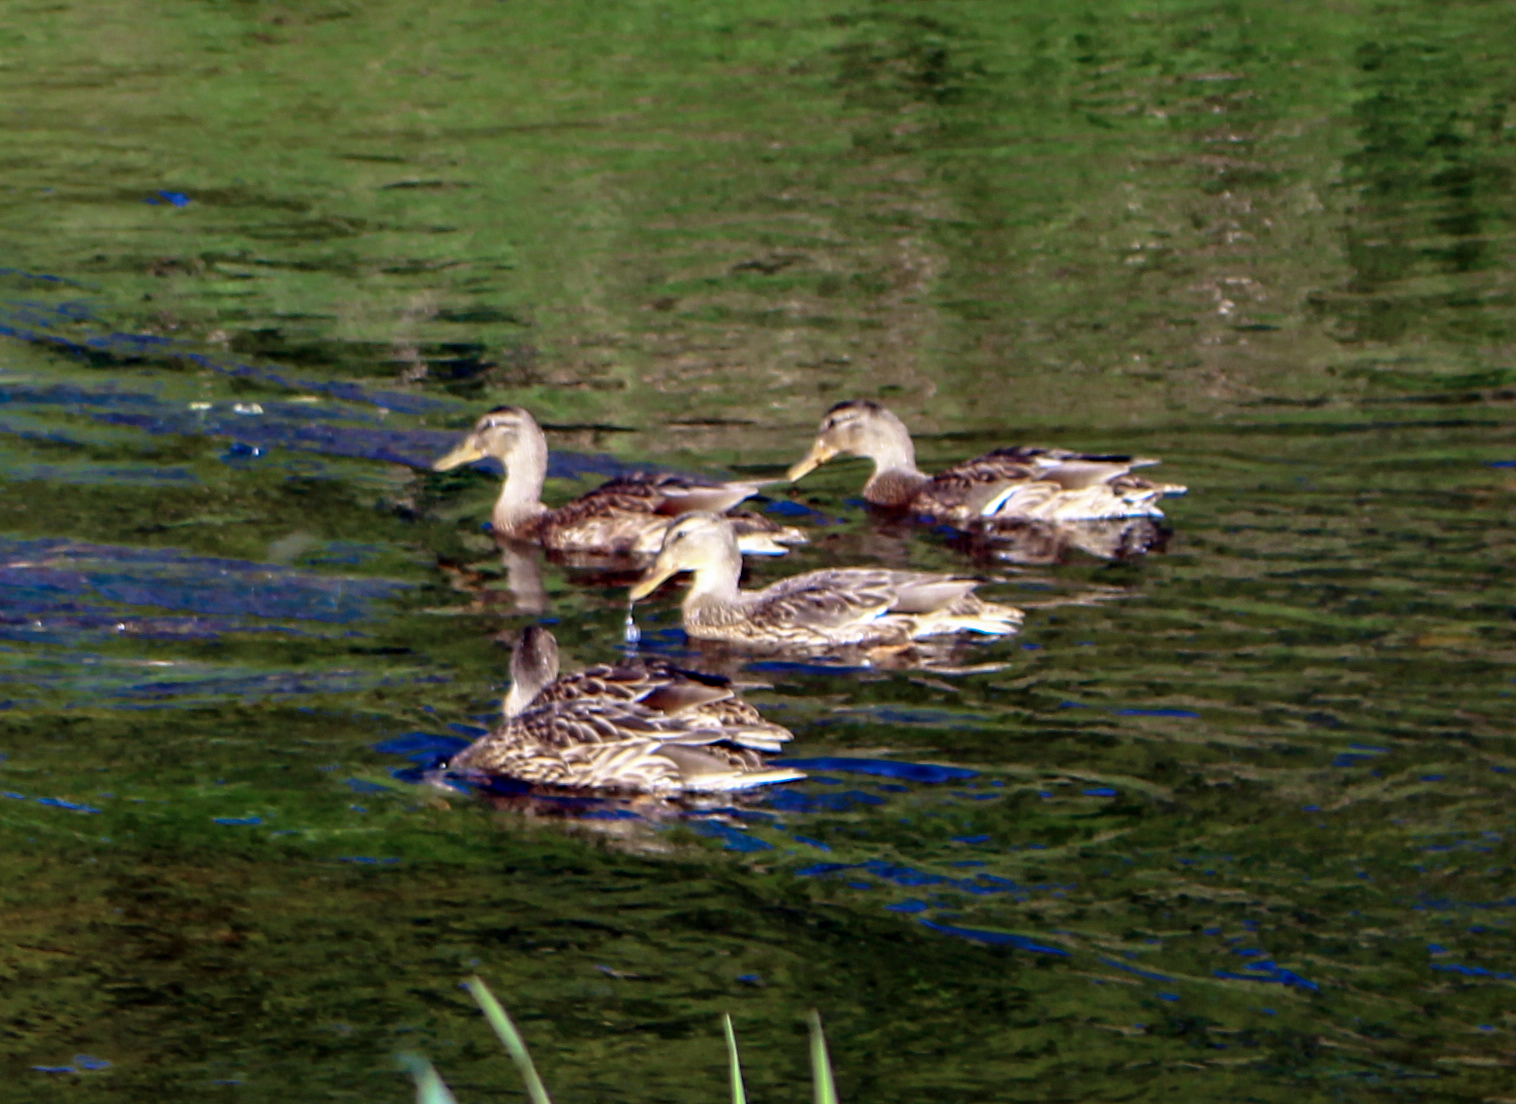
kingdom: Animalia
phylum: Chordata
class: Aves
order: Anseriformes
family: Anatidae
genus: Anas
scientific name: Anas platyrhynchos
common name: Mallard
